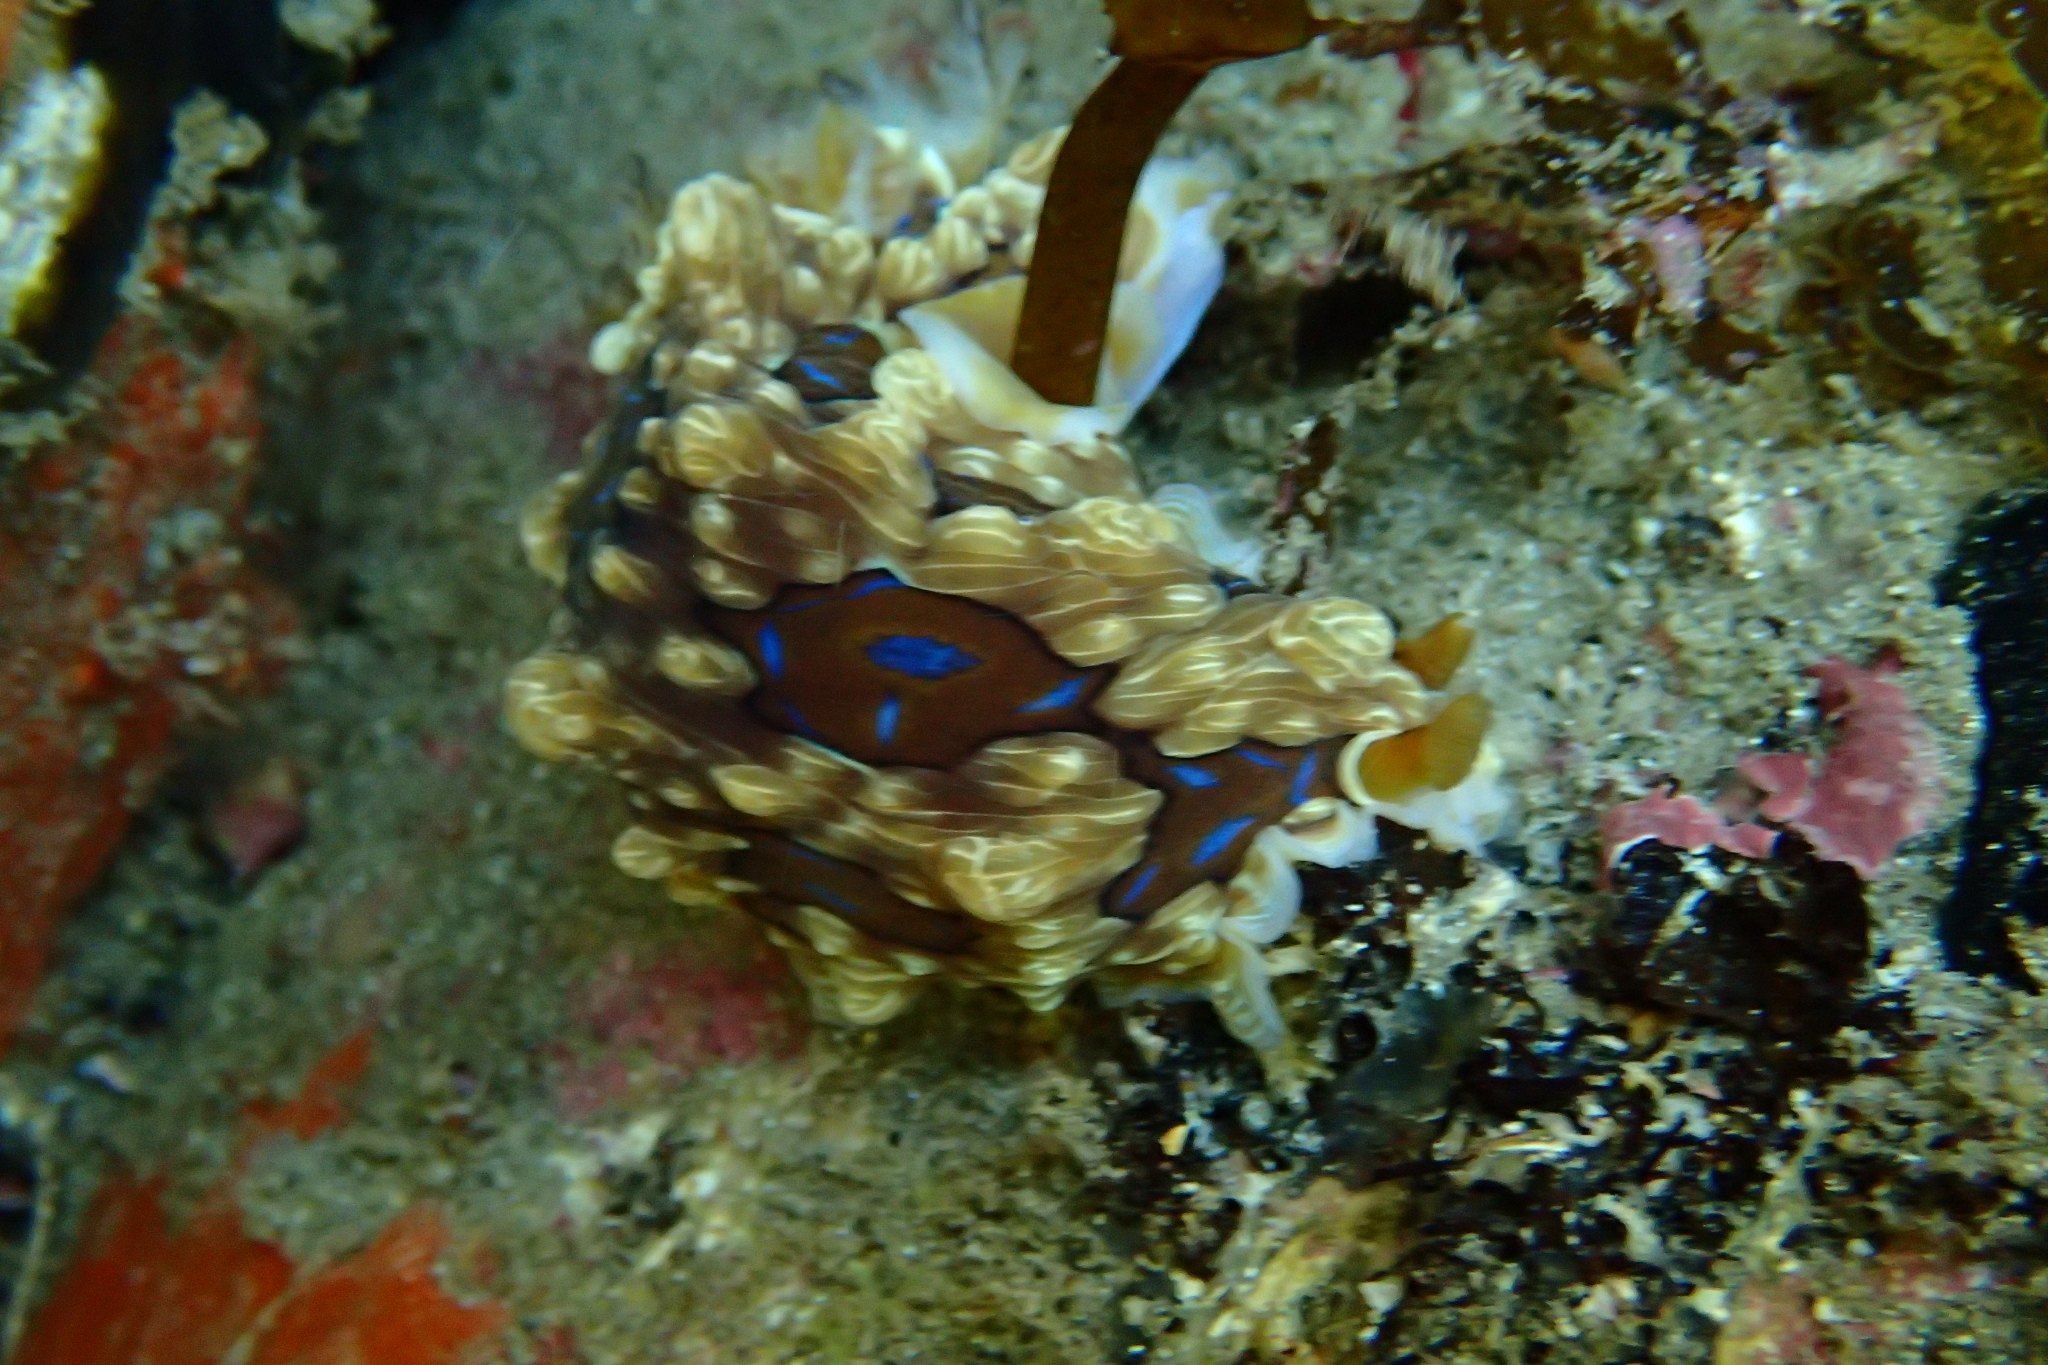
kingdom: Animalia
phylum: Mollusca
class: Gastropoda
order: Nudibranchia
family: Dendrodorididae
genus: Dendrodoris
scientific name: Dendrodoris krusensternii
